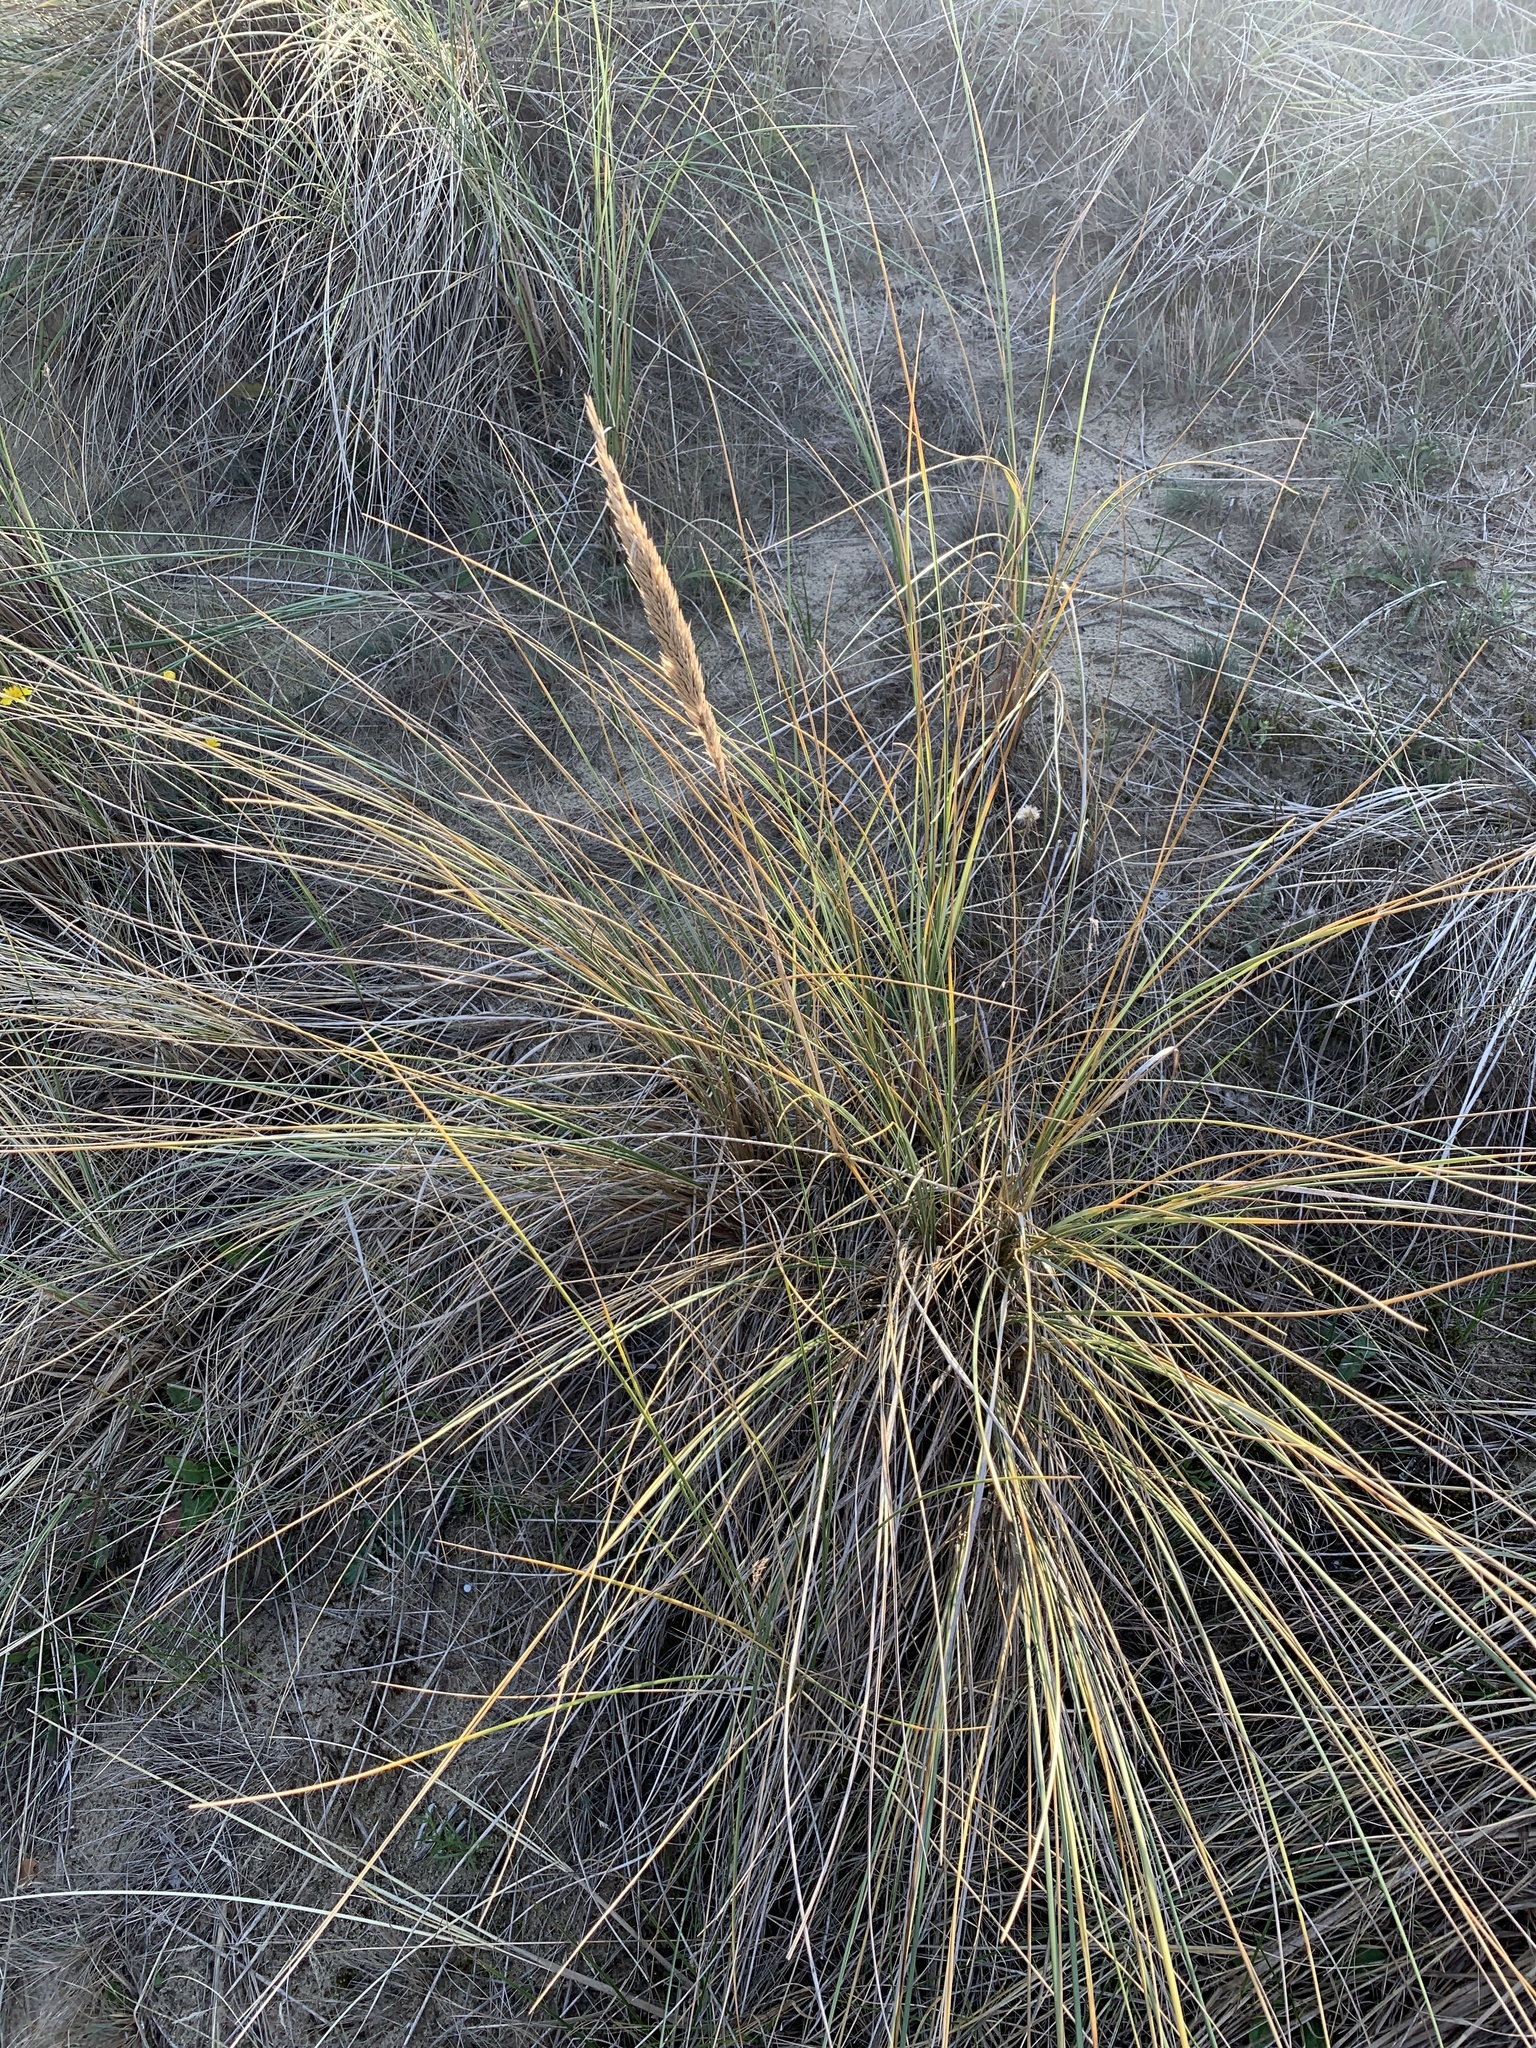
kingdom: Plantae
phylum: Tracheophyta
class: Liliopsida
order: Poales
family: Poaceae
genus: Calamagrostis
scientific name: Calamagrostis arenaria
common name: European beachgrass
